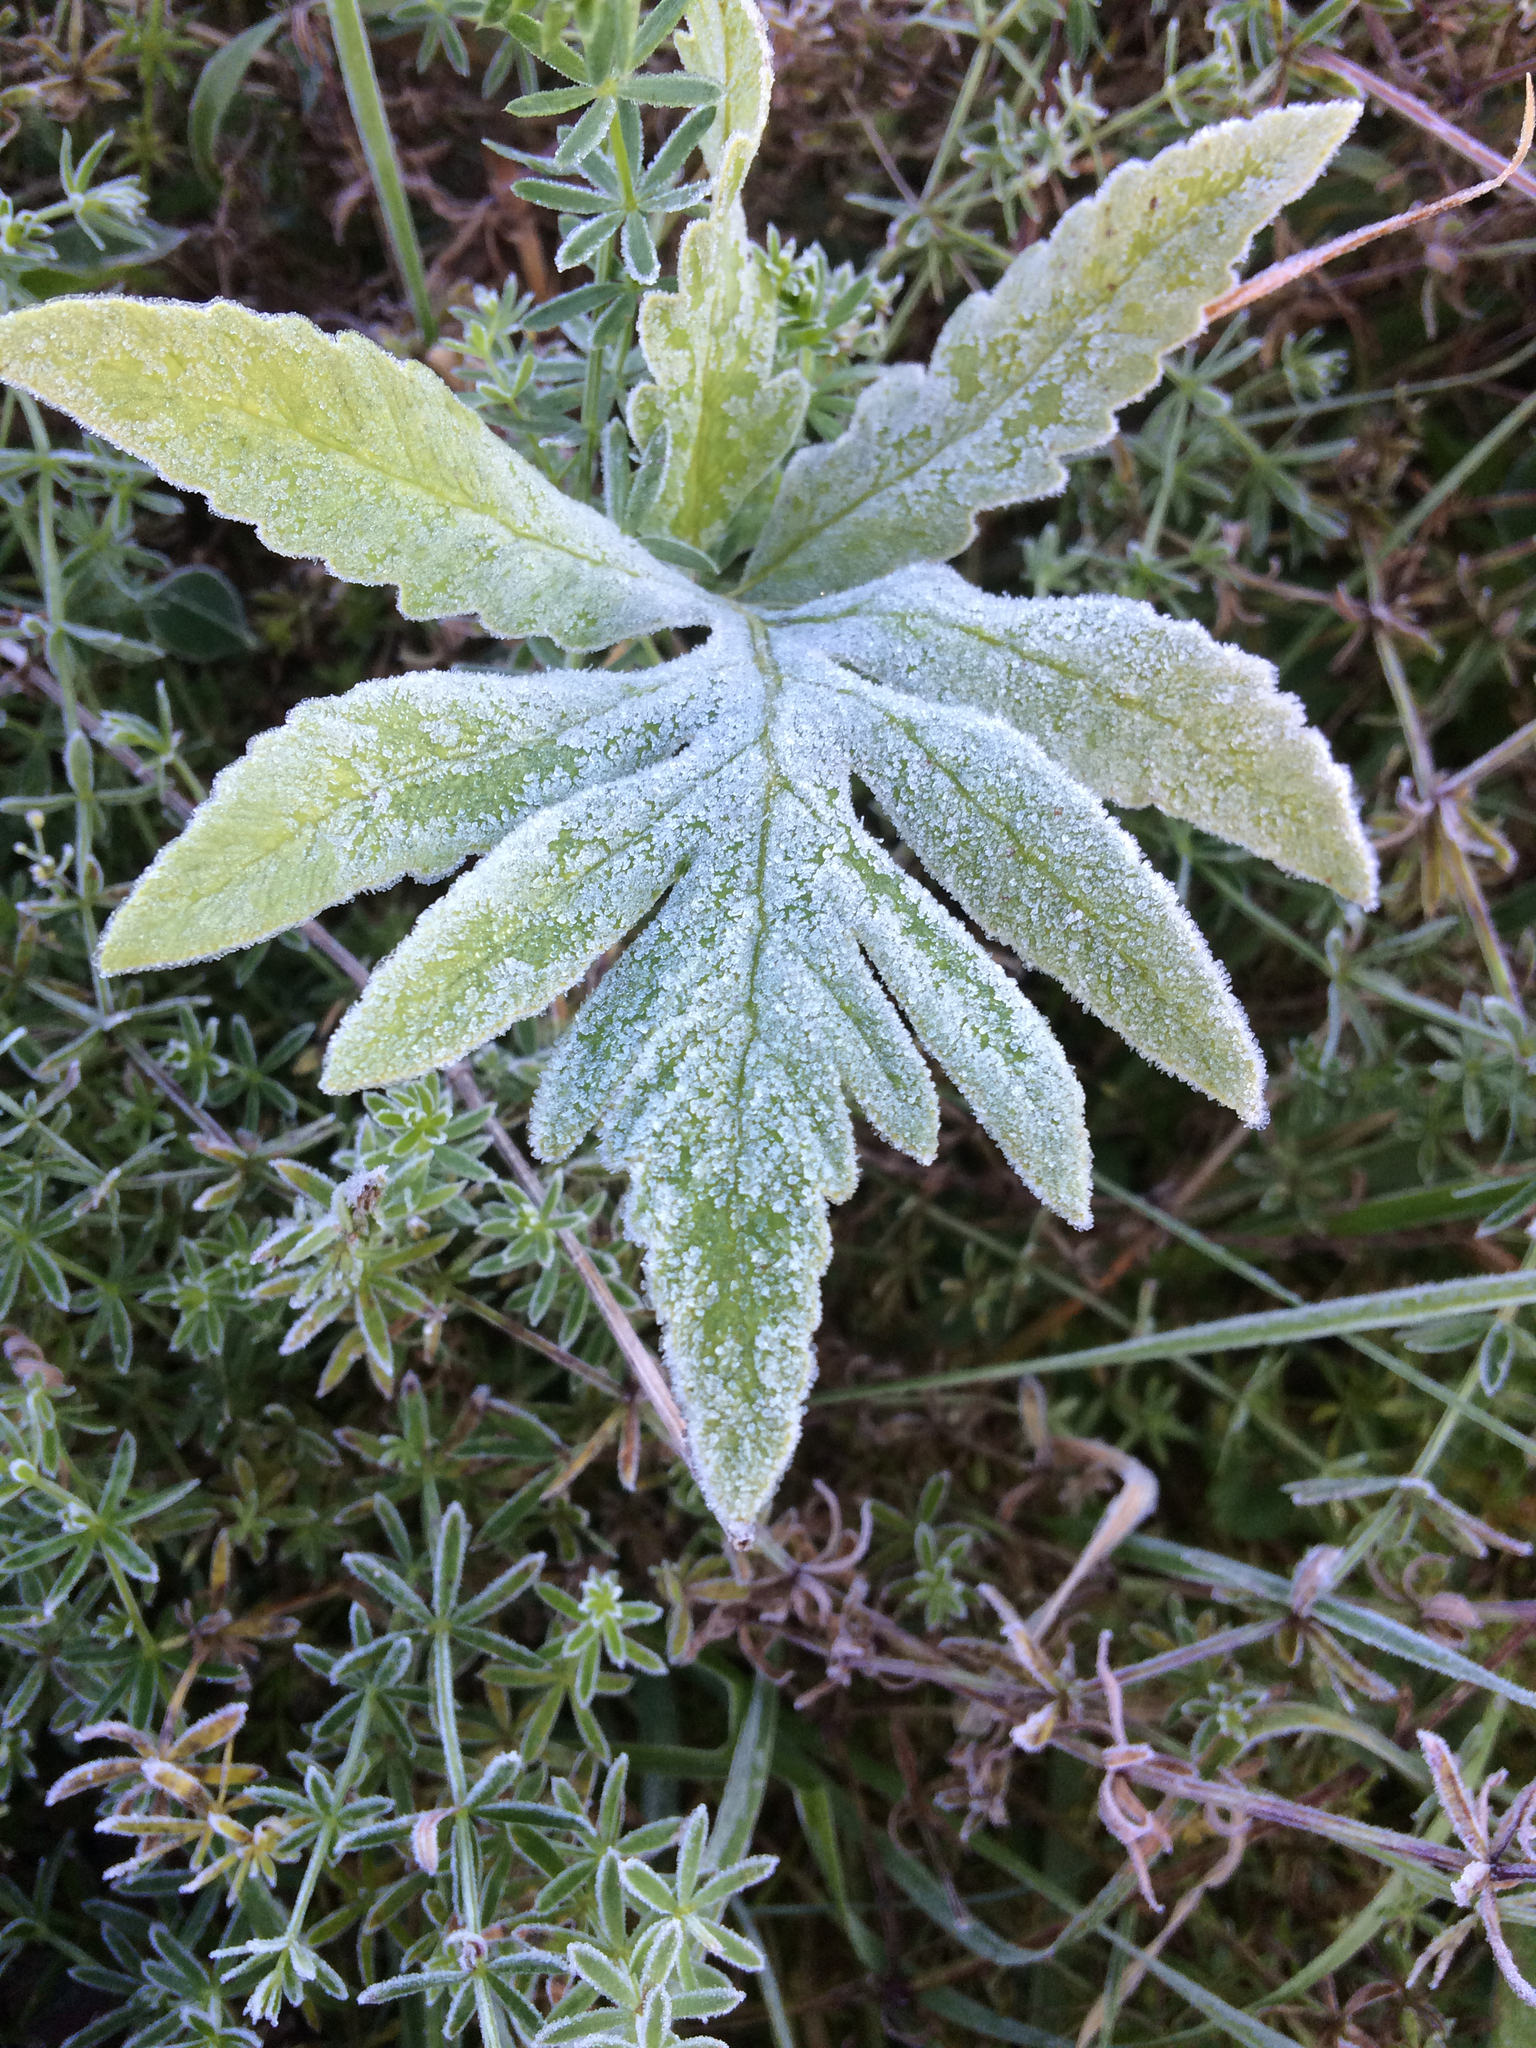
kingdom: Plantae
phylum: Tracheophyta
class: Polypodiopsida
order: Polypodiales
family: Onocleaceae
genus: Onoclea
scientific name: Onoclea sensibilis
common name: Sensitive fern
